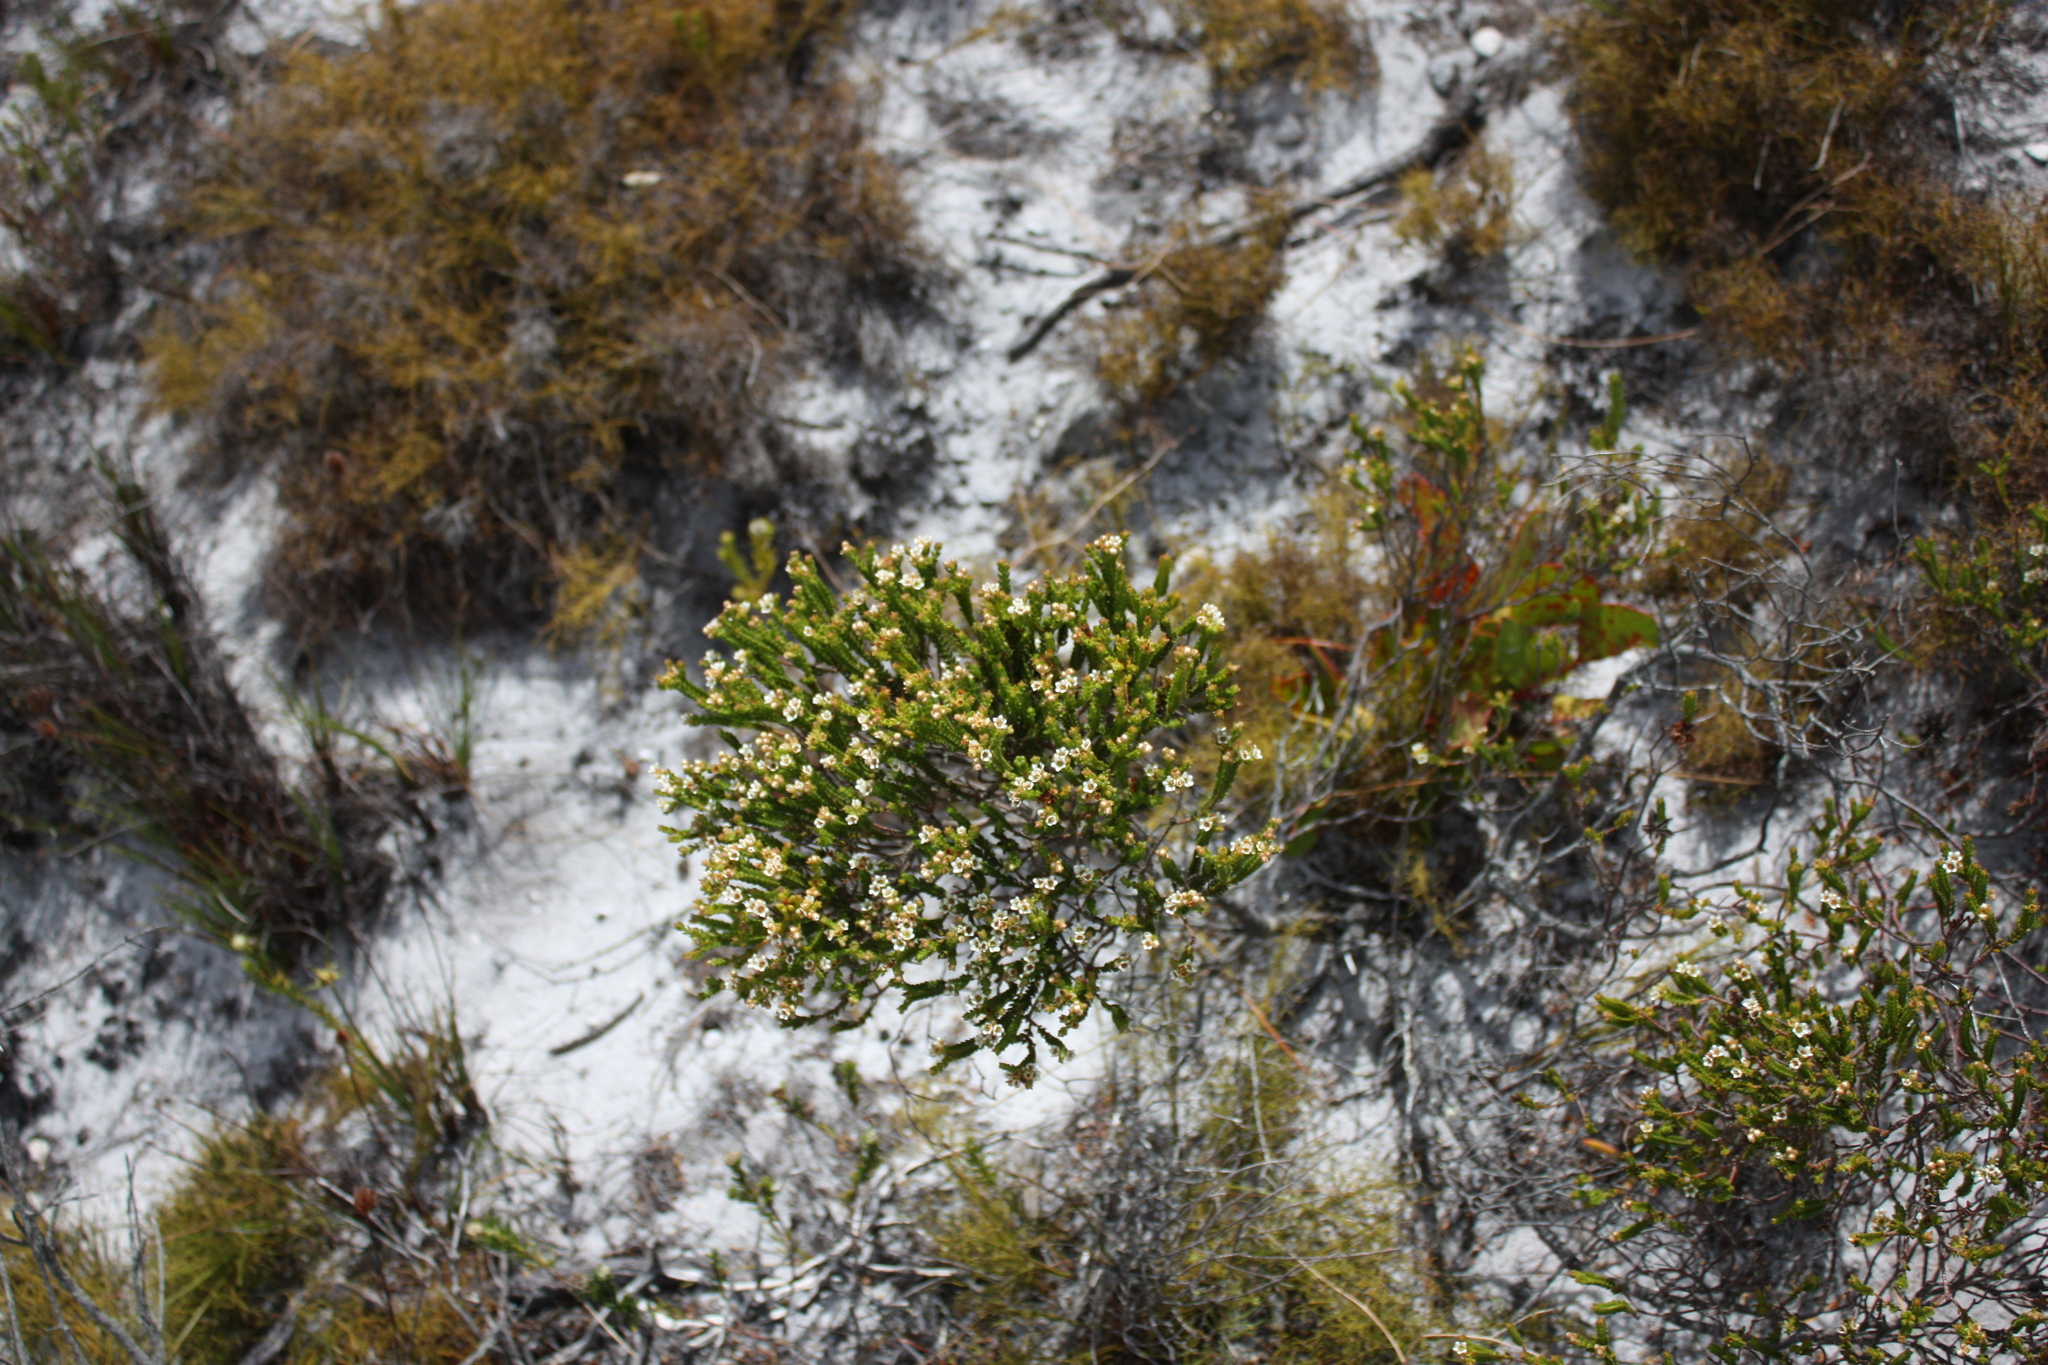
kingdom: Plantae
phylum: Tracheophyta
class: Magnoliopsida
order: Sapindales
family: Rutaceae
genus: Diosma
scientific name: Diosma oppositifolia
